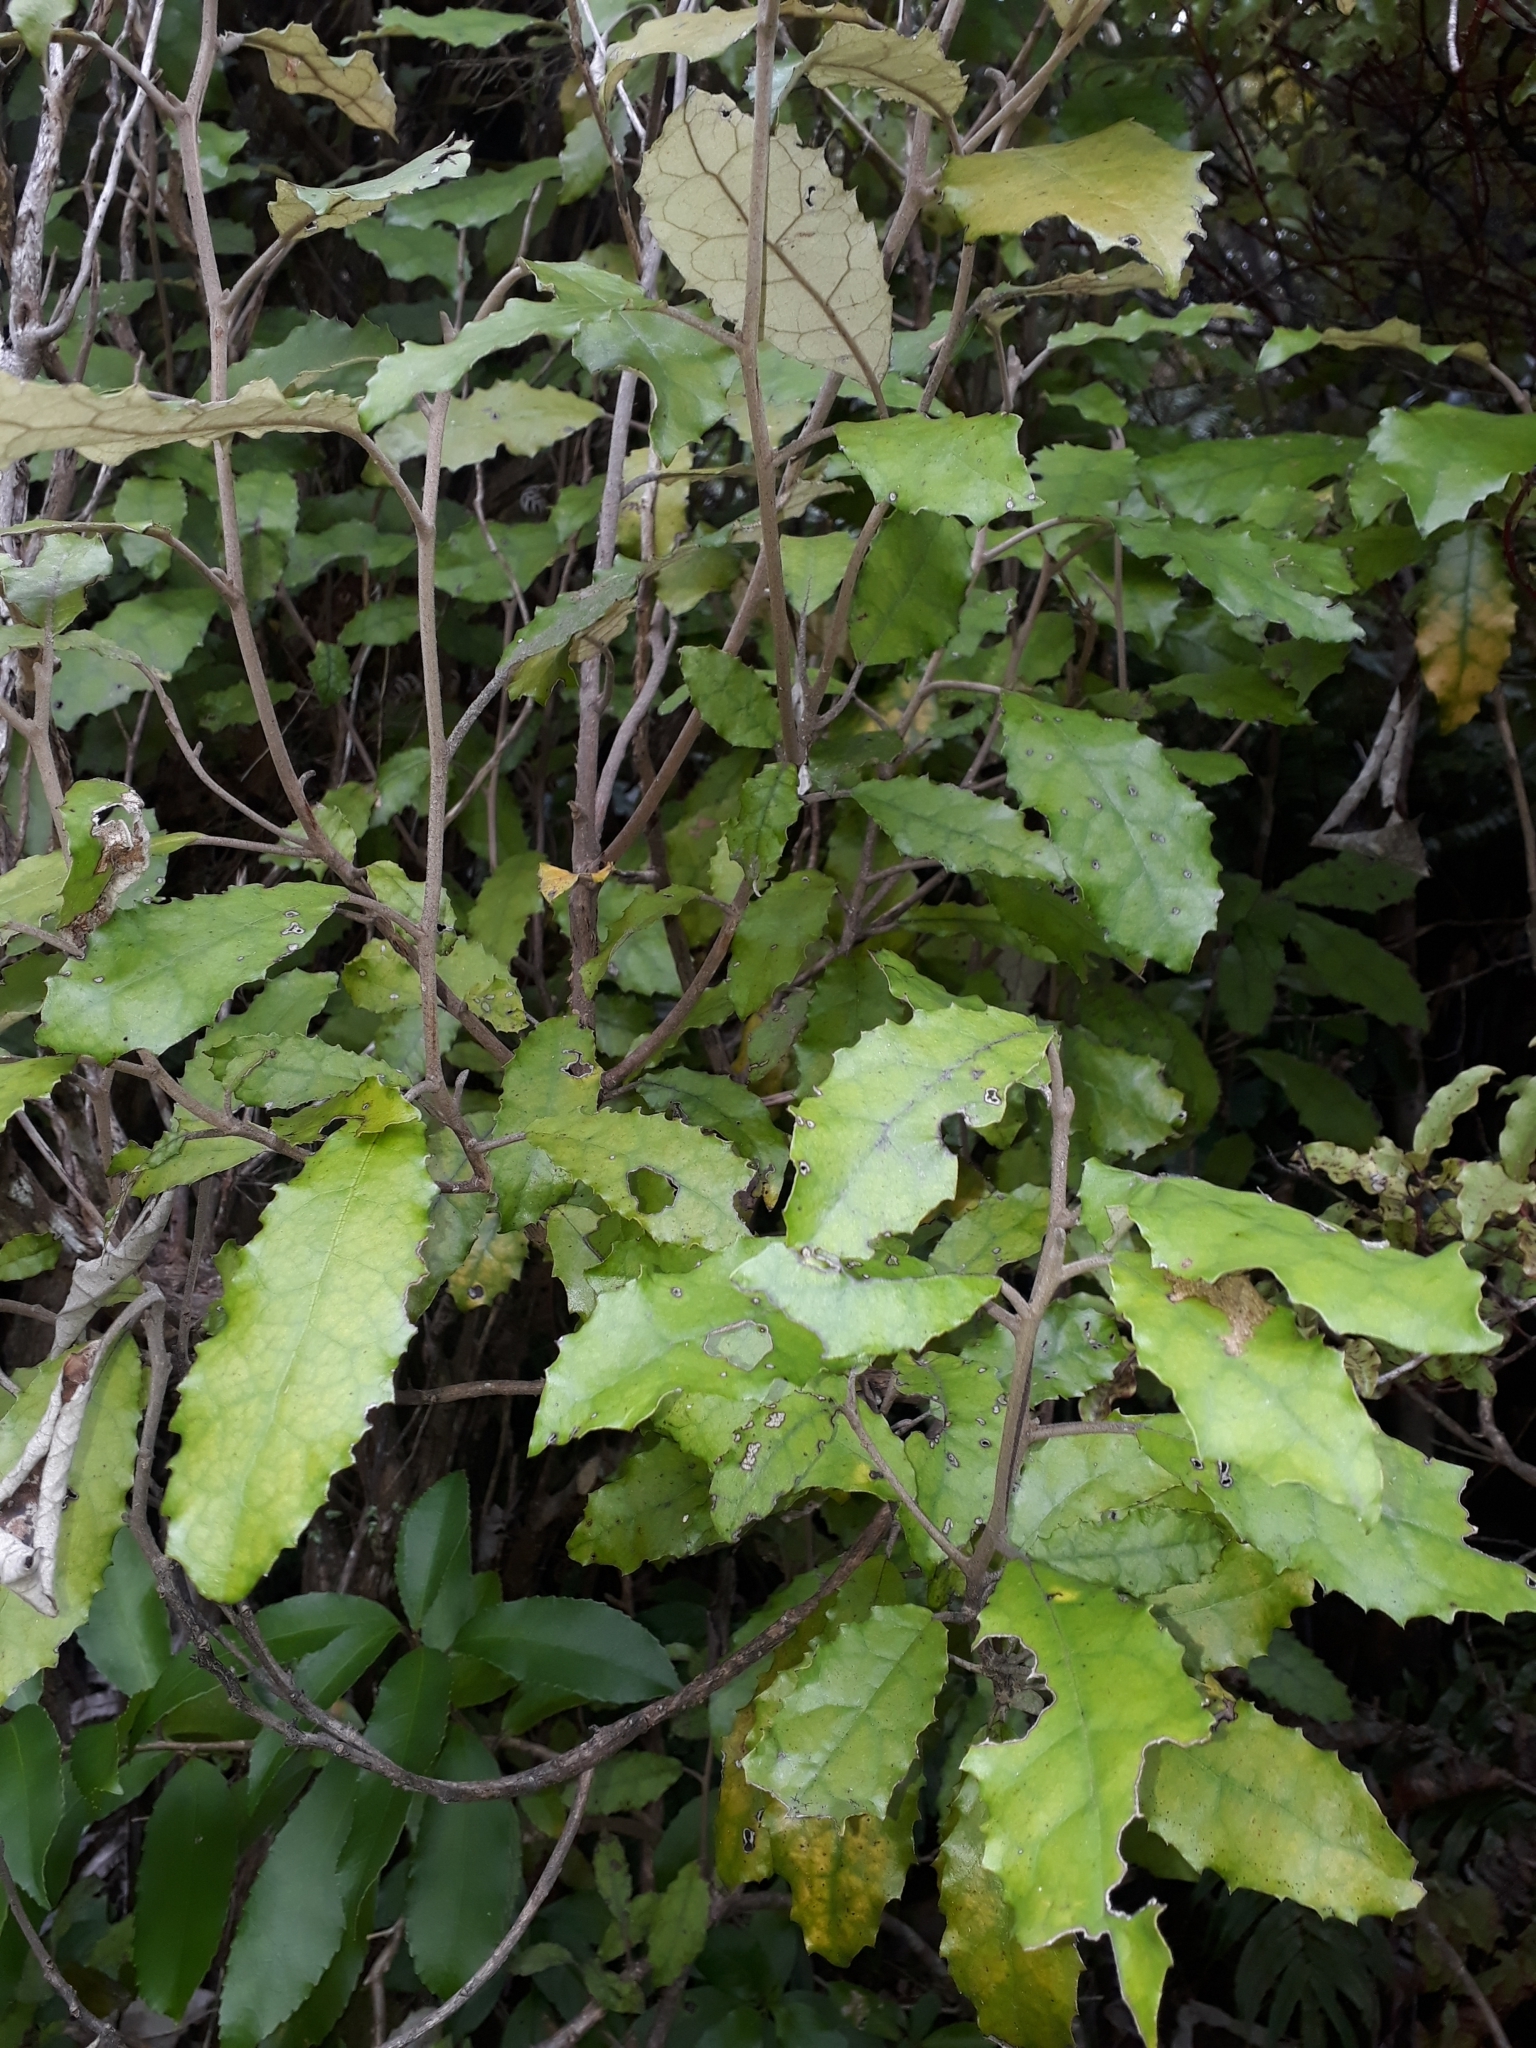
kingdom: Plantae
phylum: Tracheophyta
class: Magnoliopsida
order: Asterales
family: Asteraceae
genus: Olearia
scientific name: Olearia rani
